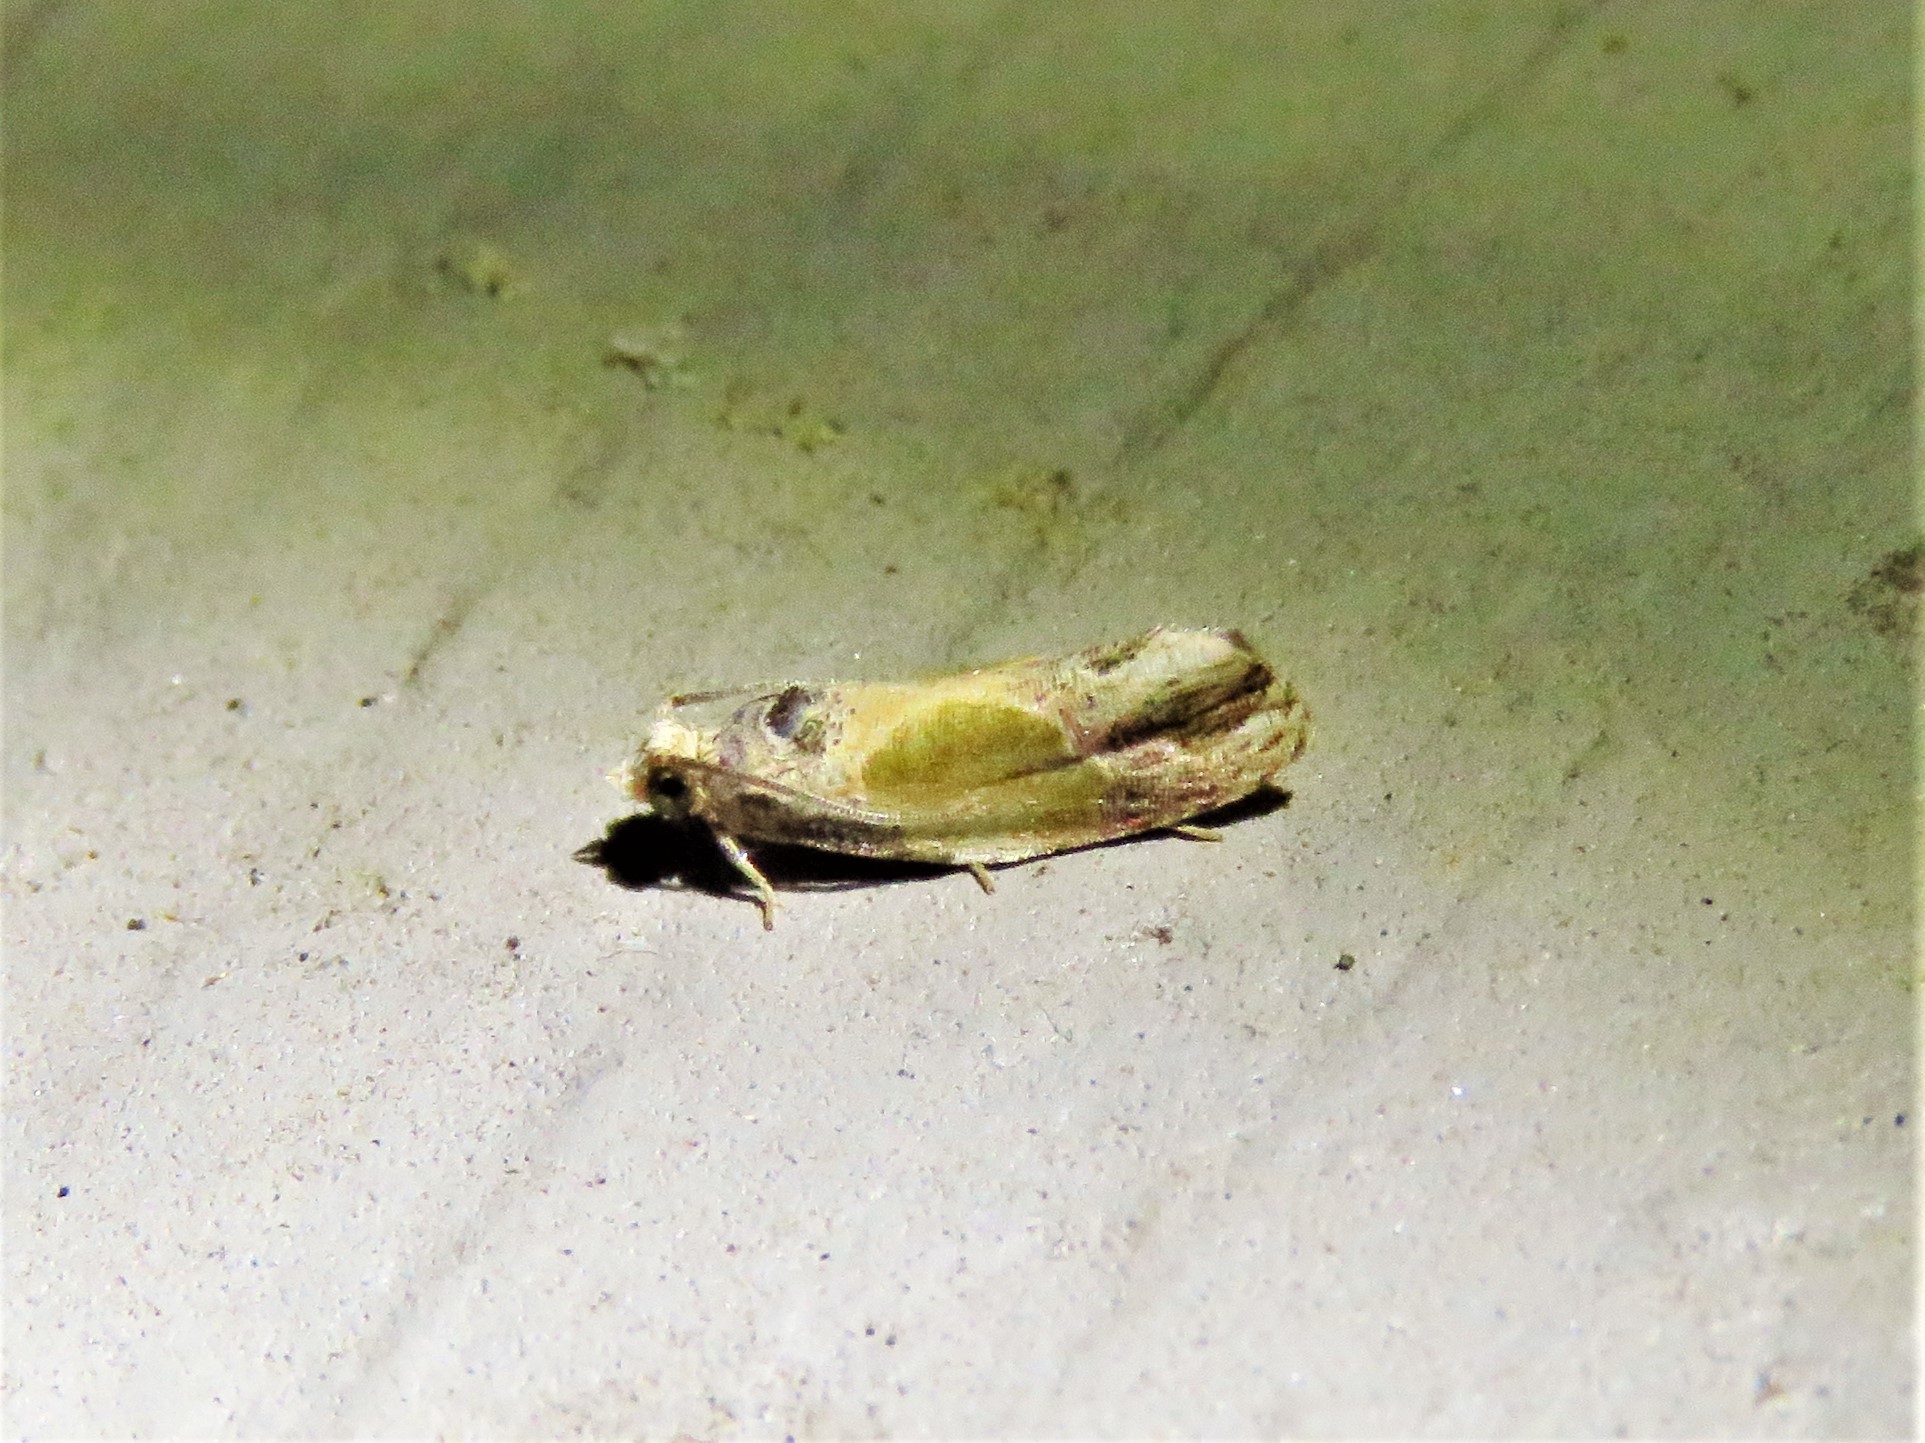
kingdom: Animalia
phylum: Arthropoda
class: Insecta
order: Lepidoptera
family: Tortricidae
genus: Eumarozia
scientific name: Eumarozia malachitana
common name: Sculptured moth
